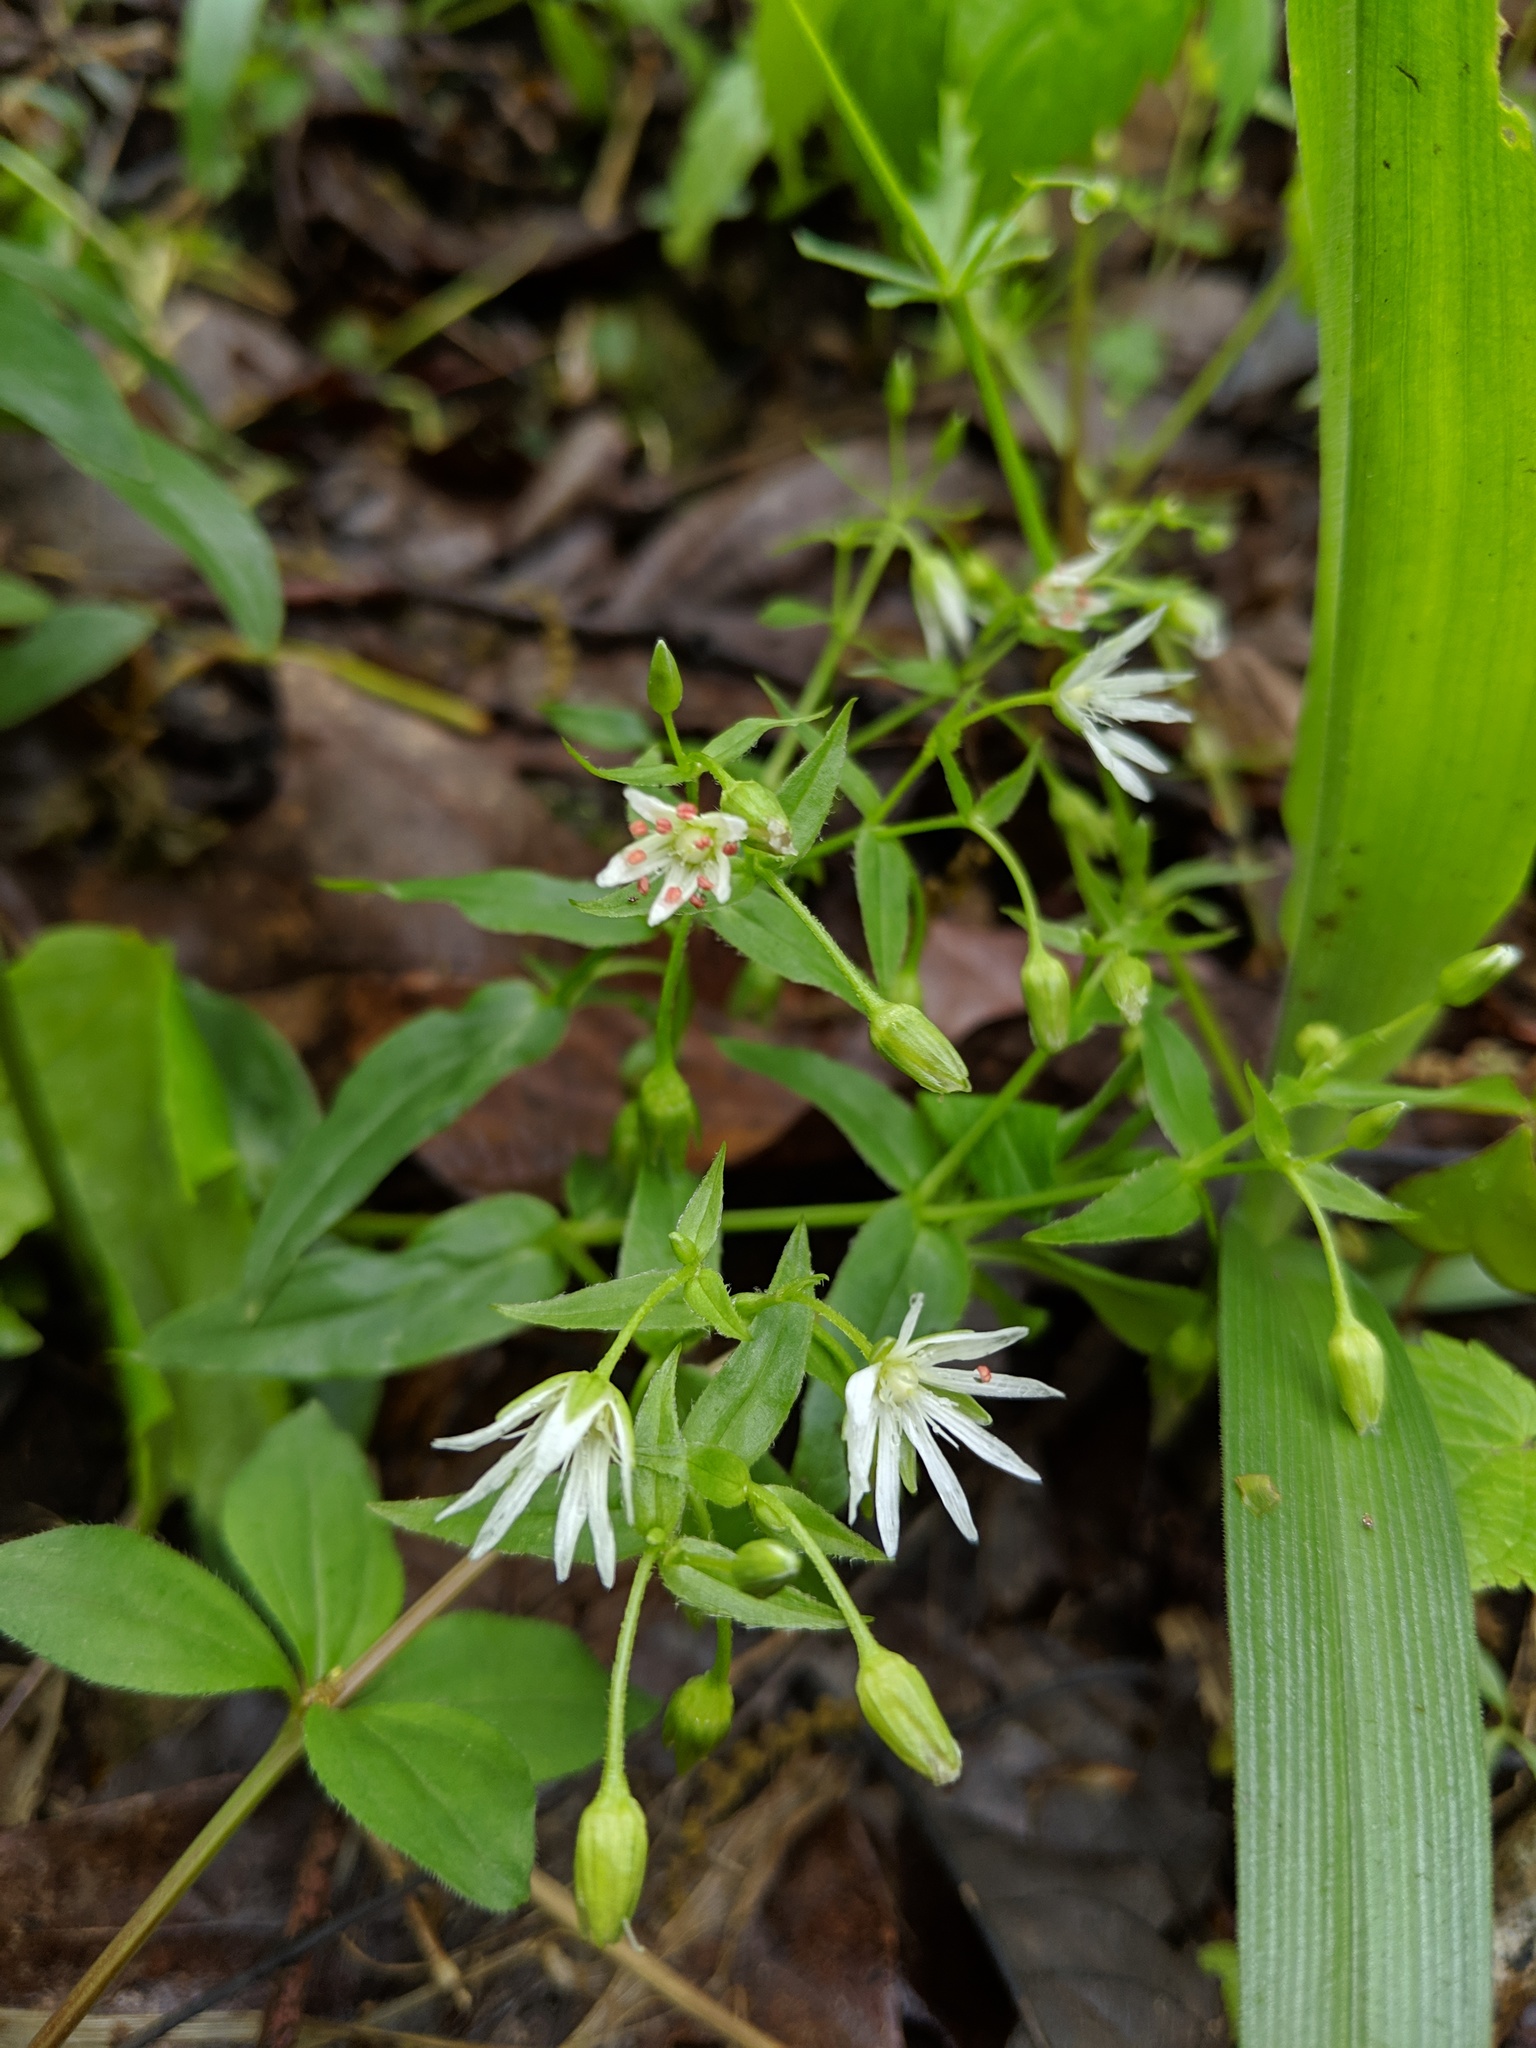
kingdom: Plantae
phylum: Tracheophyta
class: Magnoliopsida
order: Caryophyllales
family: Caryophyllaceae
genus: Stellaria
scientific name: Stellaria pubera
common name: Star chickweed
